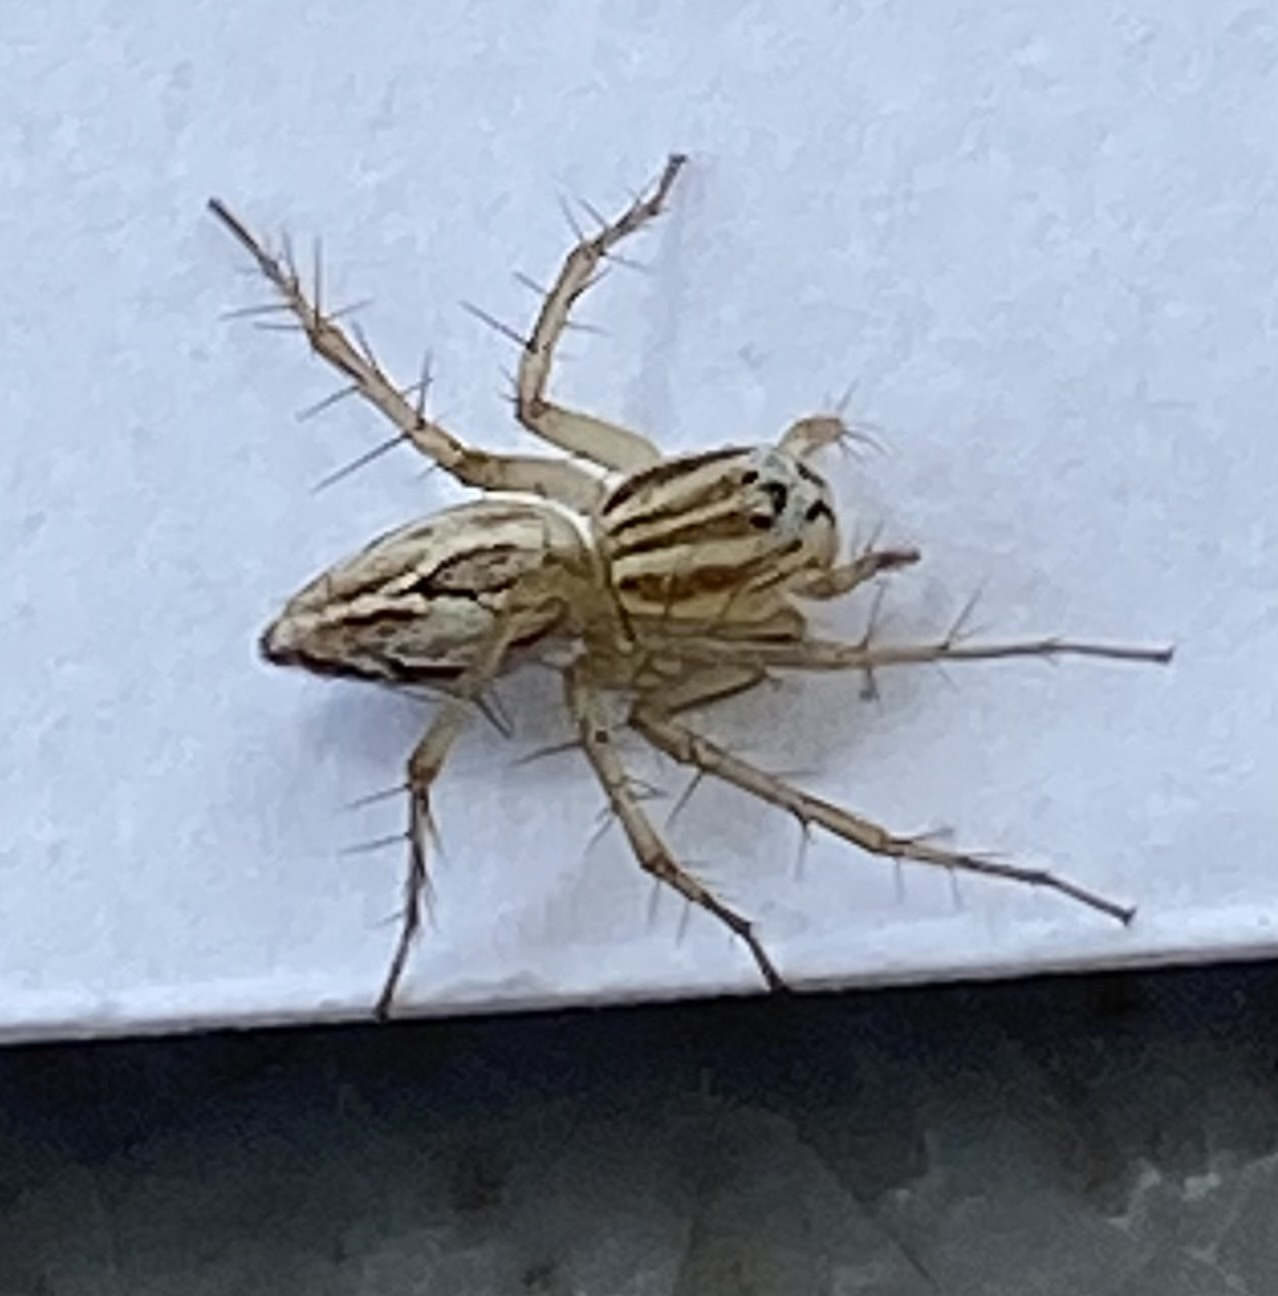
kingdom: Animalia
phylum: Arthropoda
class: Arachnida
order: Araneae
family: Oxyopidae
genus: Oxyopes
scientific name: Oxyopes salticus
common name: Lynx spiders
